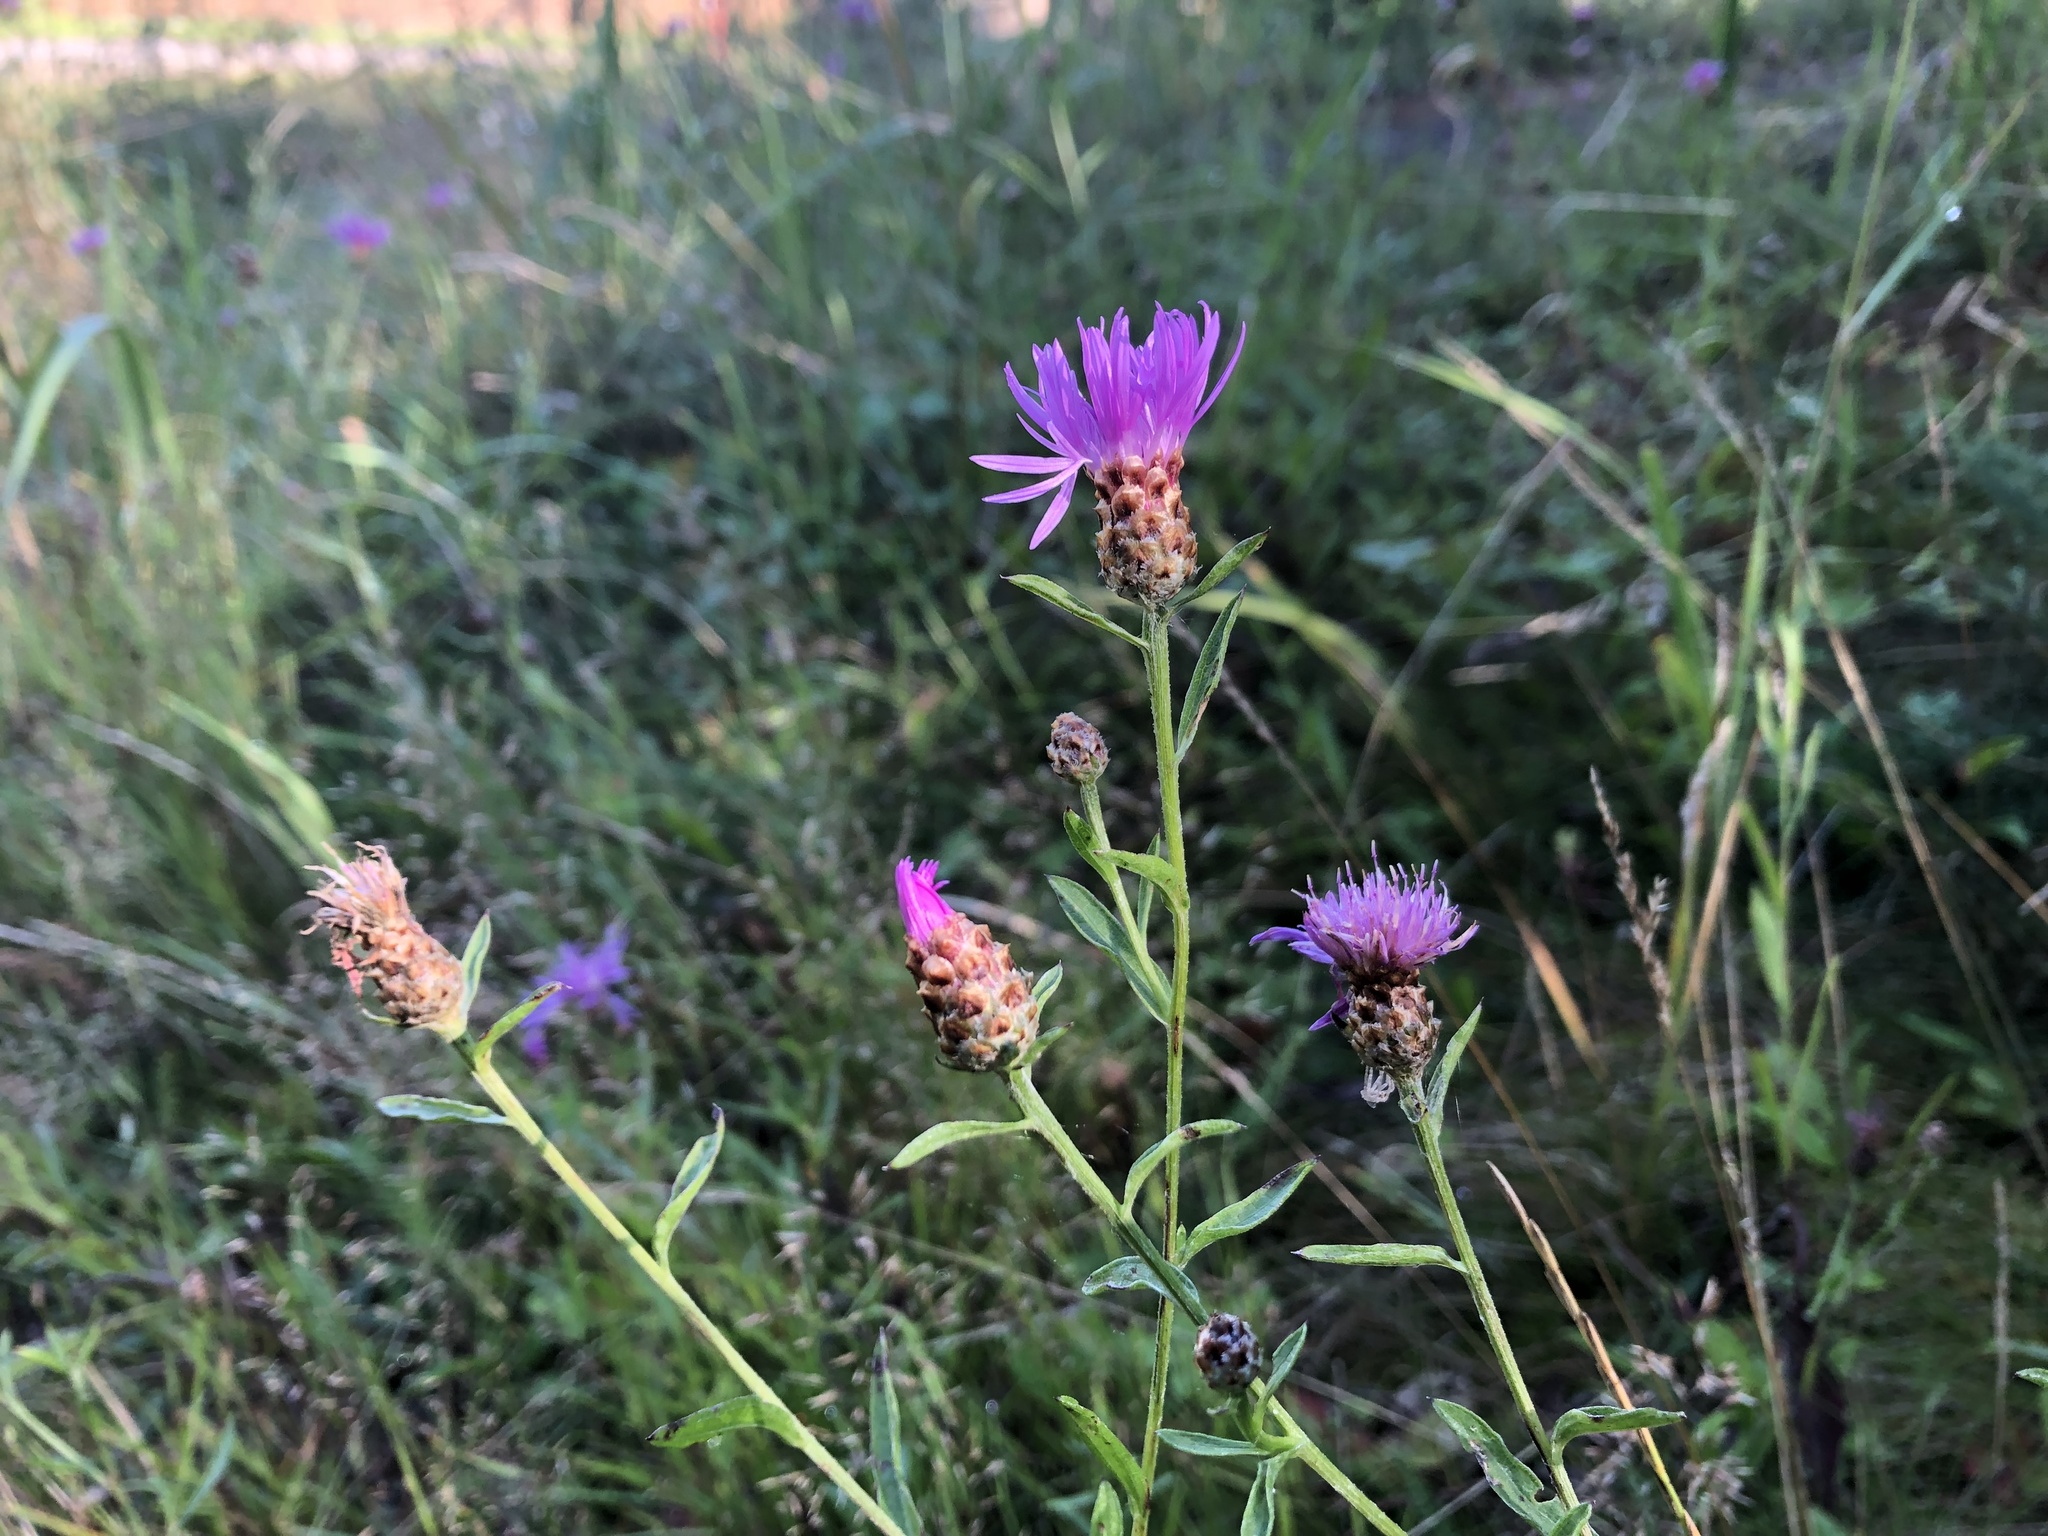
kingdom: Plantae
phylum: Tracheophyta
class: Magnoliopsida
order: Asterales
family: Asteraceae
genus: Centaurea
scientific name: Centaurea jacea
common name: Brown knapweed
